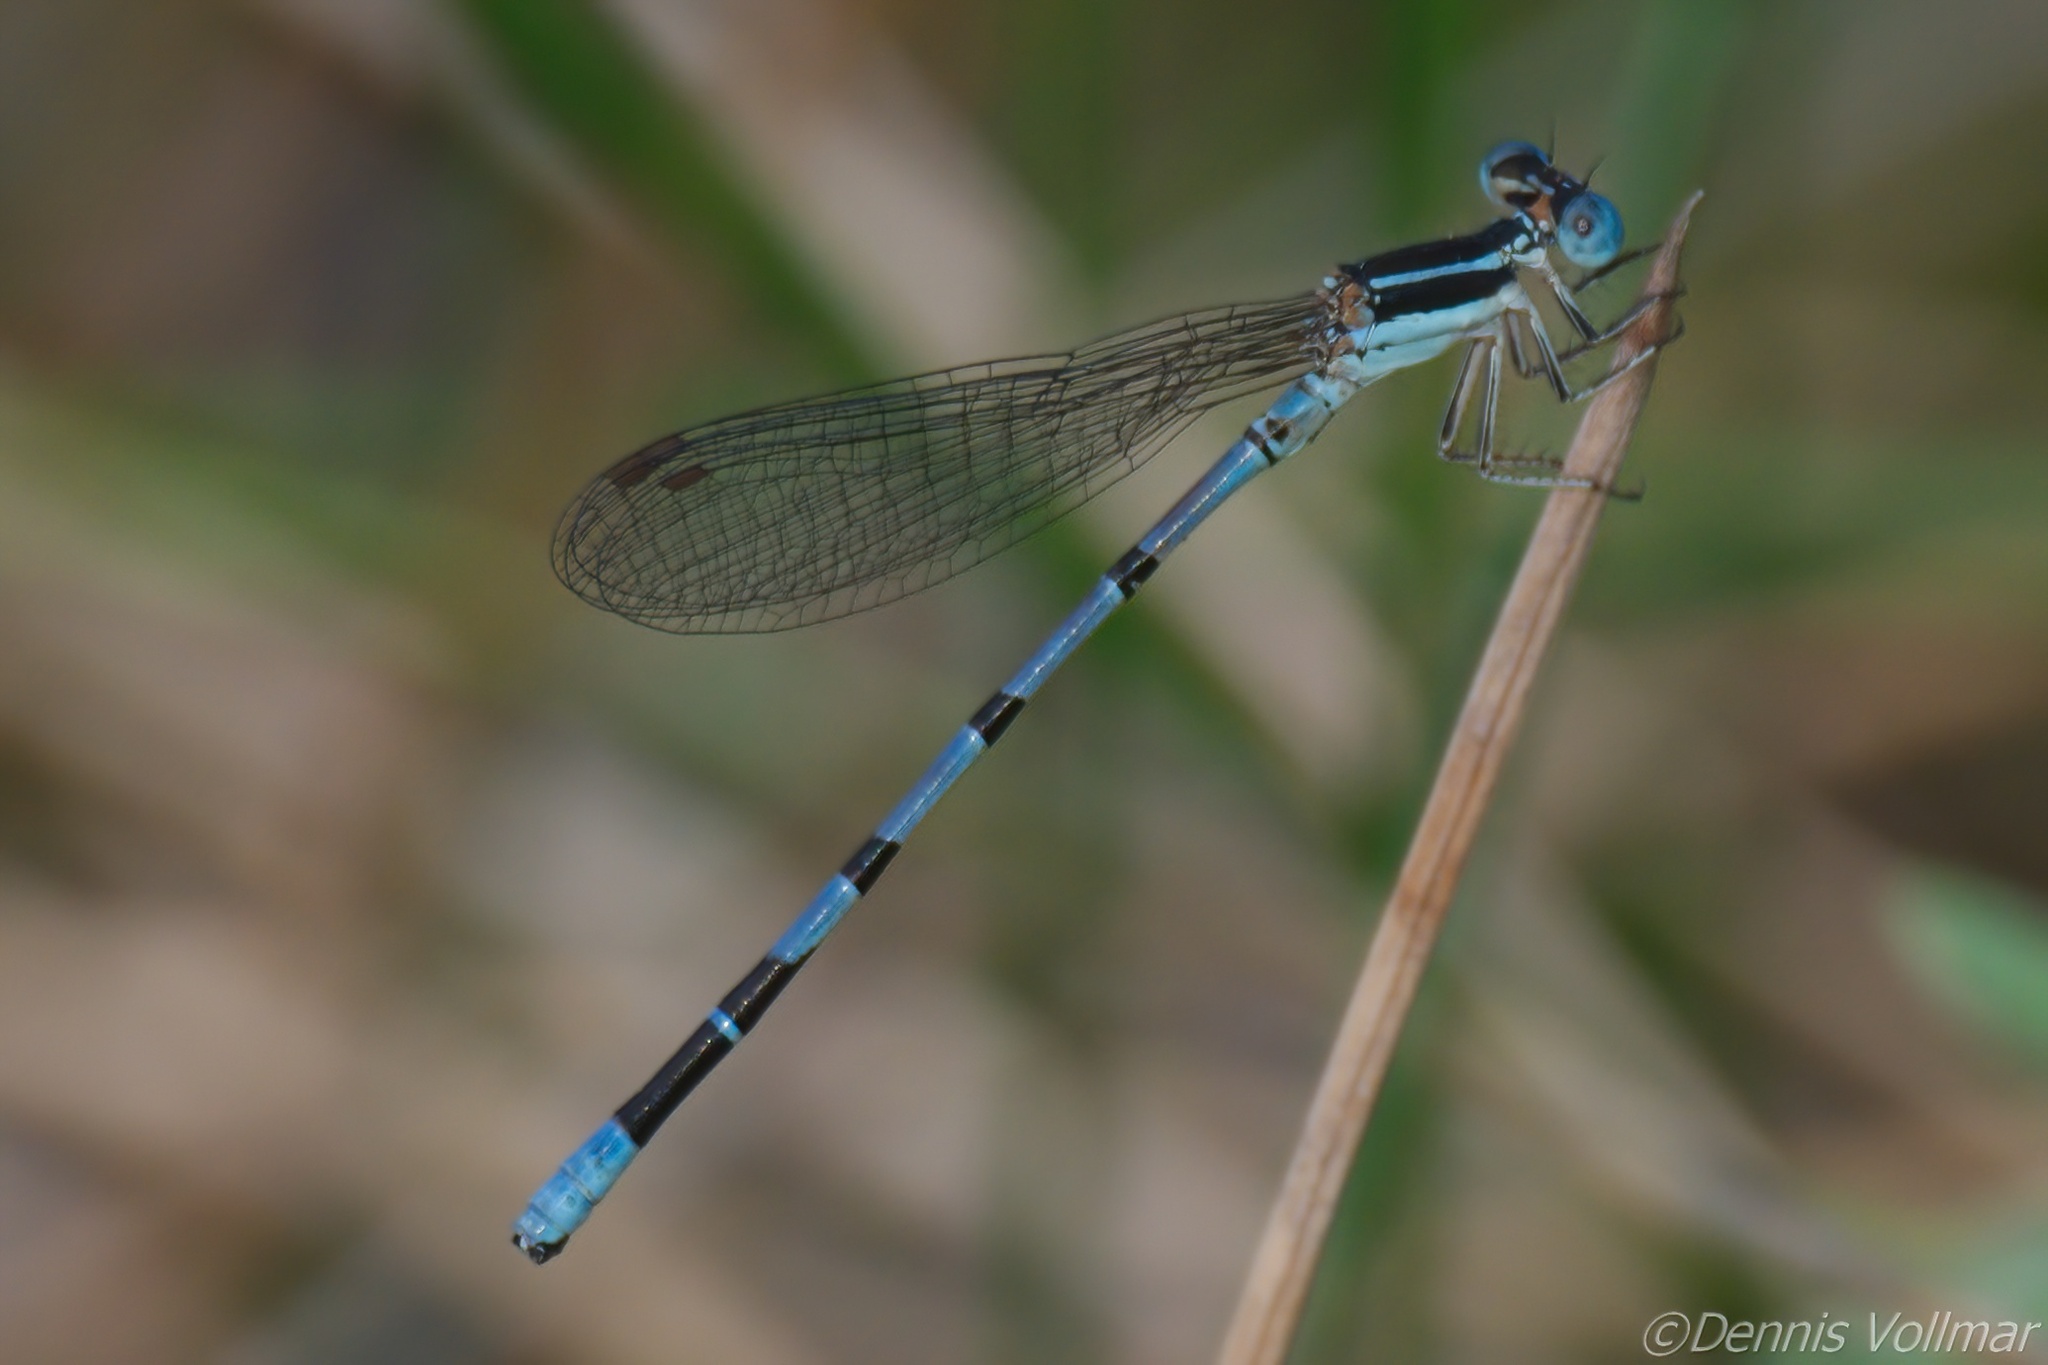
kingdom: Animalia
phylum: Arthropoda
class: Insecta
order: Odonata
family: Coenagrionidae
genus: Argia
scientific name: Argia bipunctulata
